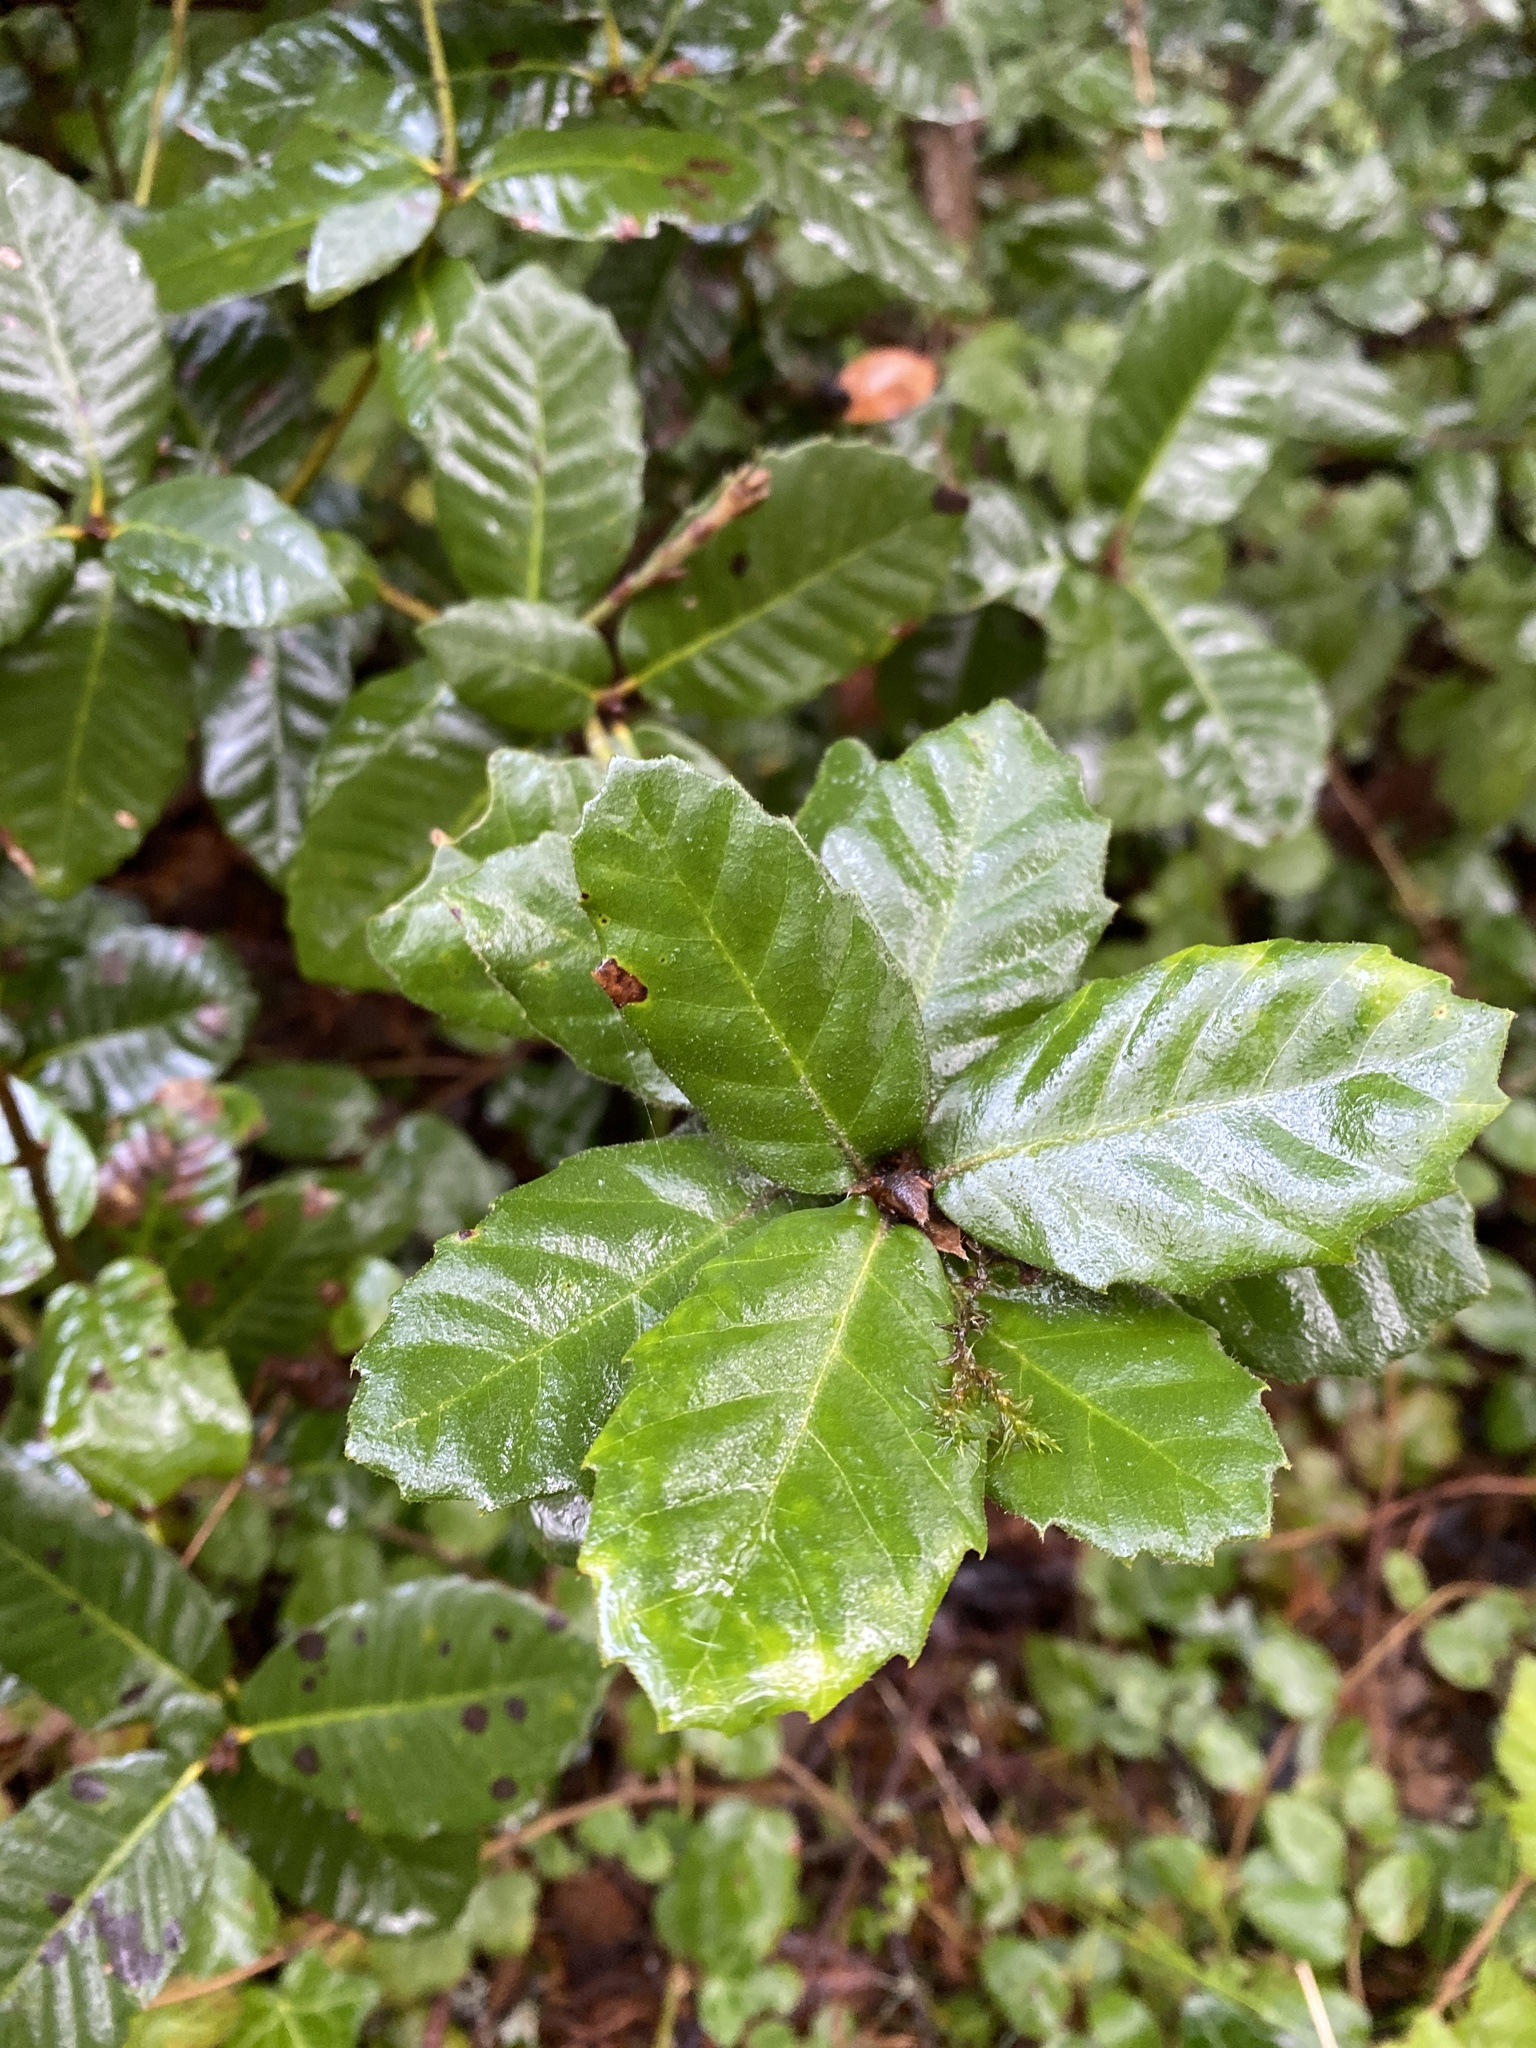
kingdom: Plantae
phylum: Tracheophyta
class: Magnoliopsida
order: Fagales
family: Fagaceae
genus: Notholithocarpus
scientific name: Notholithocarpus densiflorus
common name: Tan bark oak
